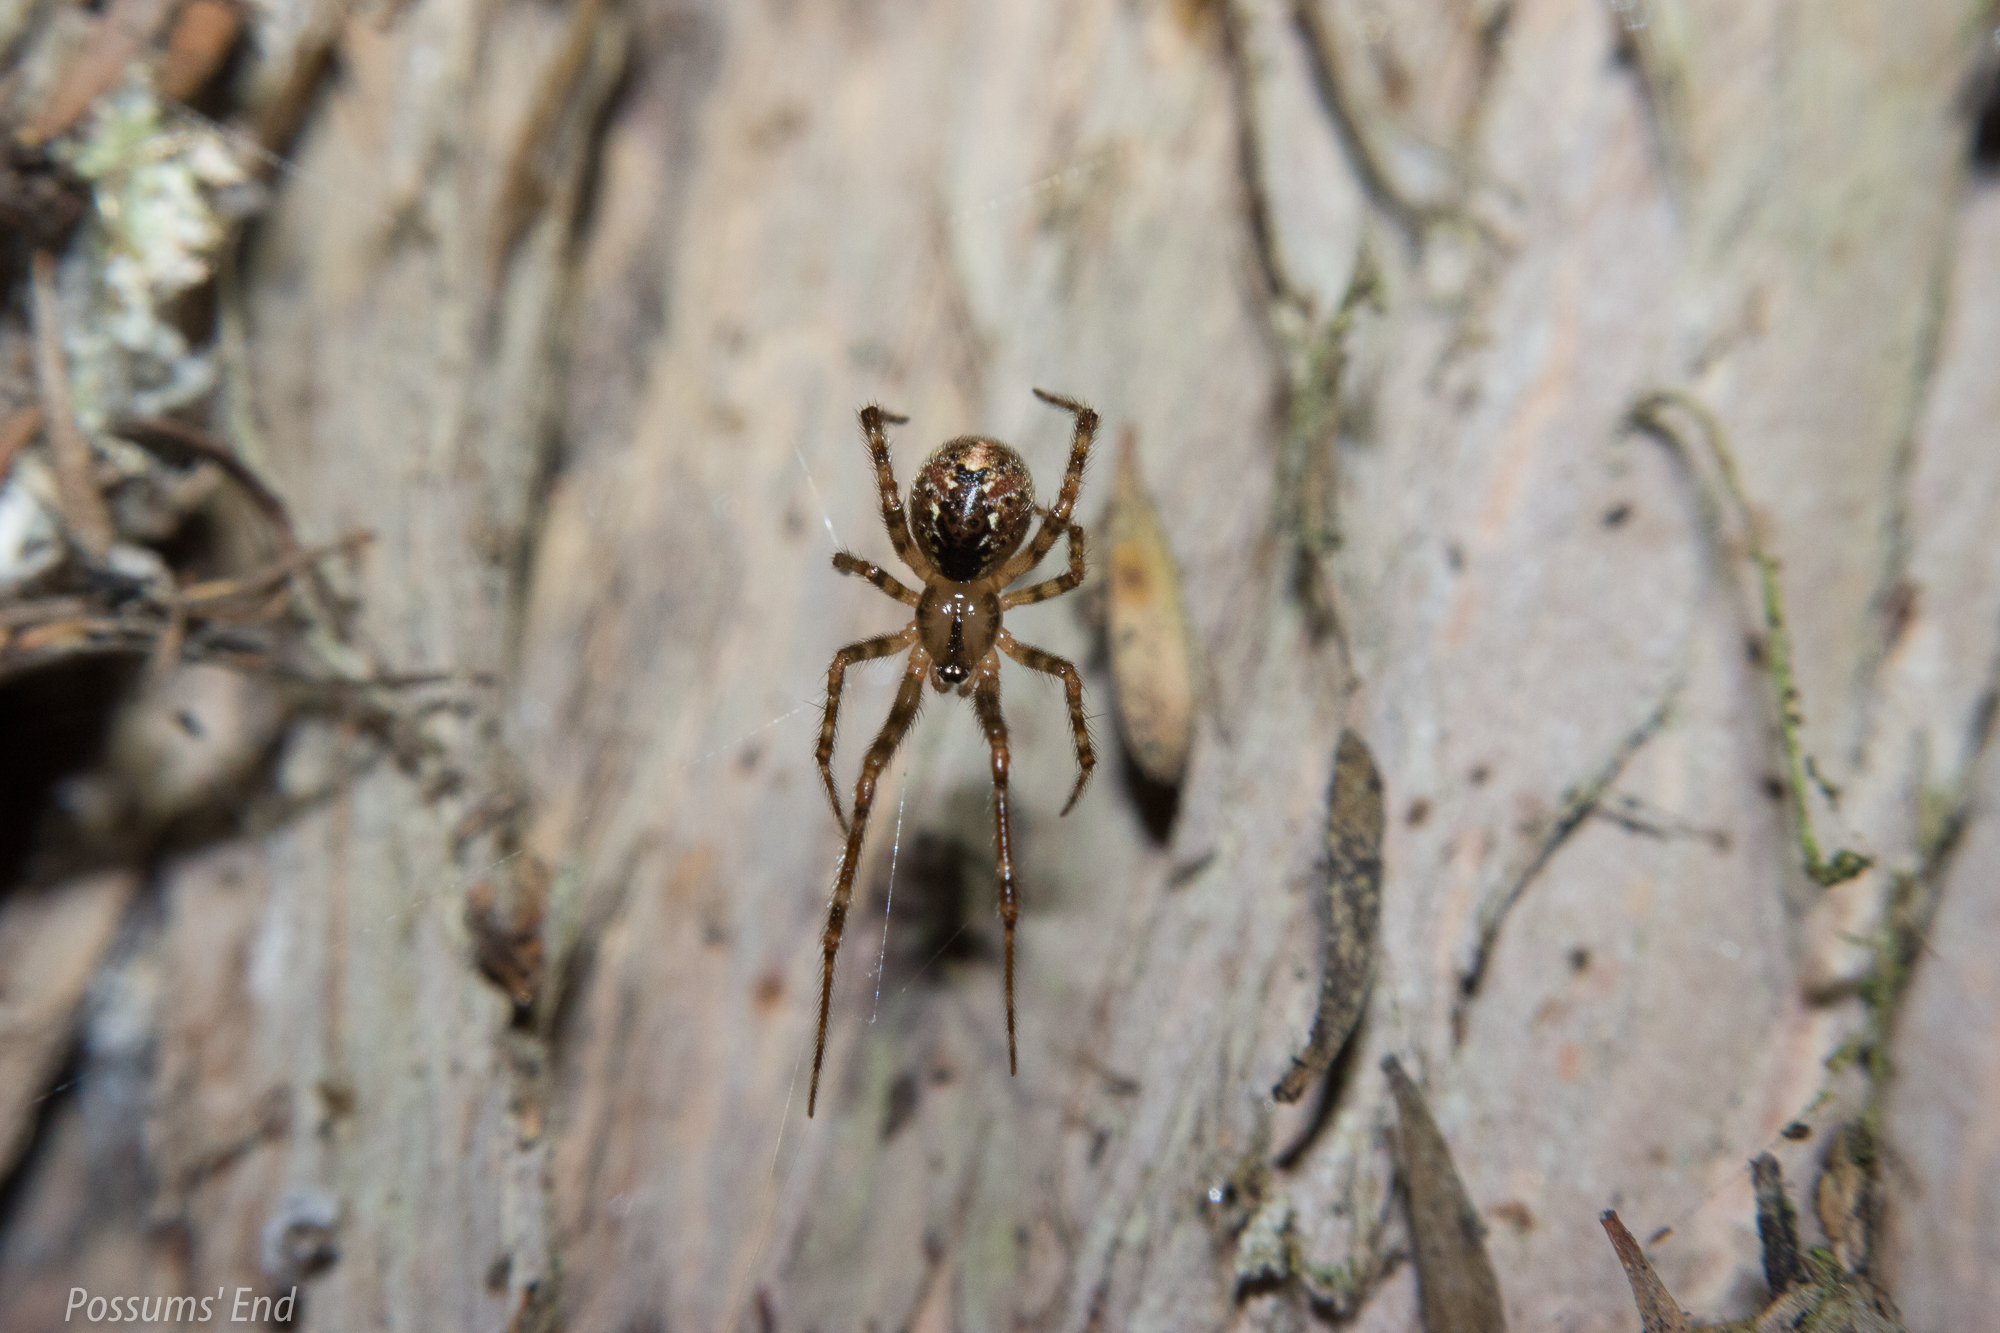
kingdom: Animalia
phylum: Arthropoda
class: Arachnida
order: Araneae
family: Theridiidae
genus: Theridion
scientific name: Theridion zantholabio
